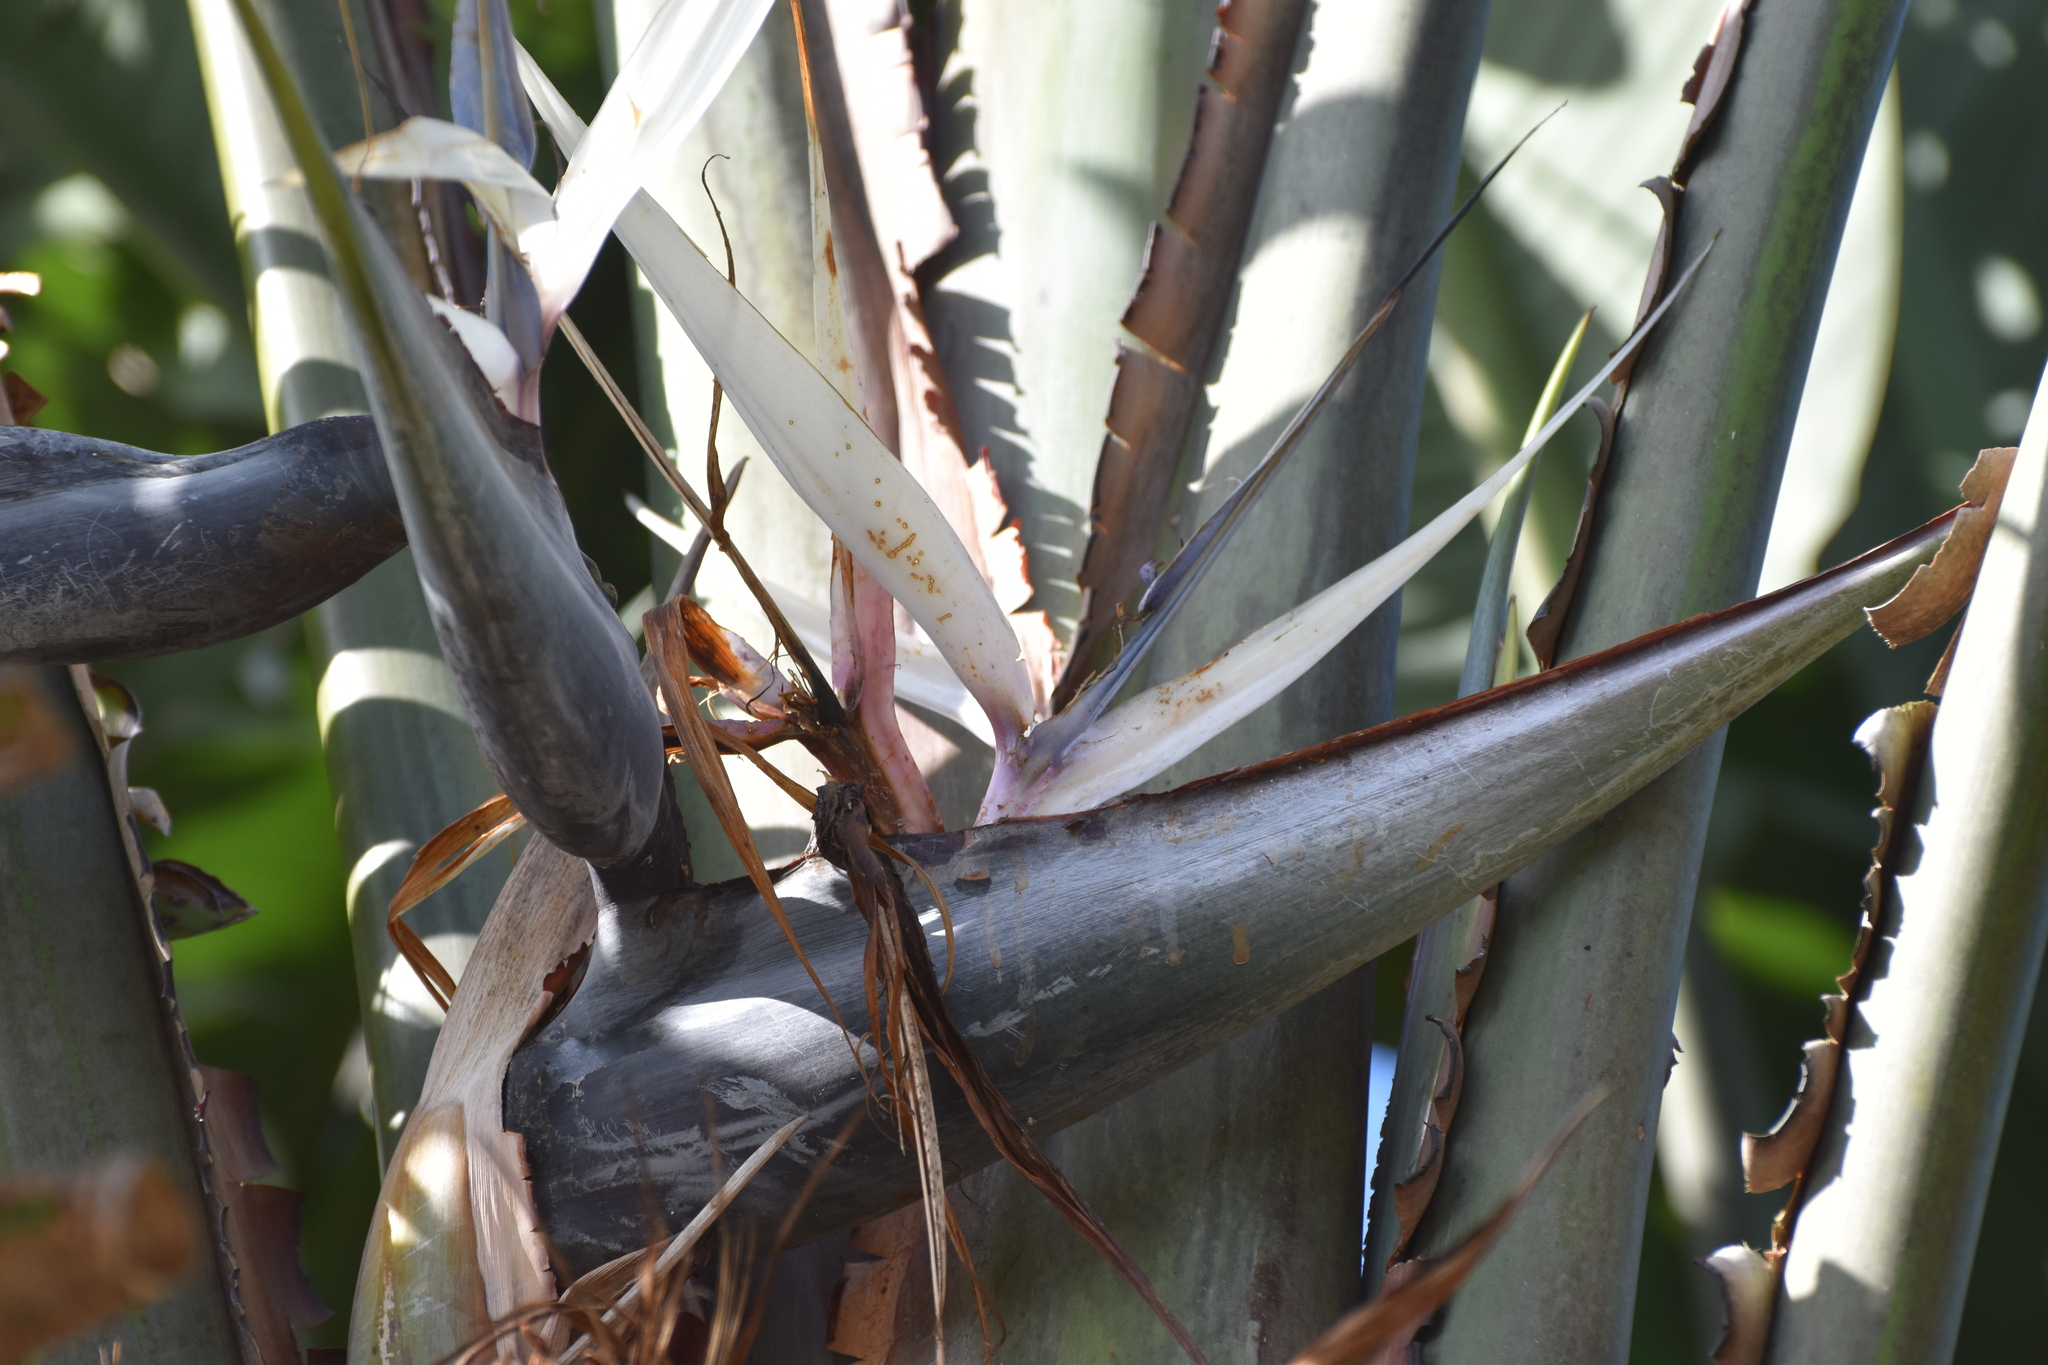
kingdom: Plantae
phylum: Tracheophyta
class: Liliopsida
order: Zingiberales
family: Strelitziaceae
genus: Strelitzia
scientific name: Strelitzia nicolai
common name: Bird-of-paradise tree
